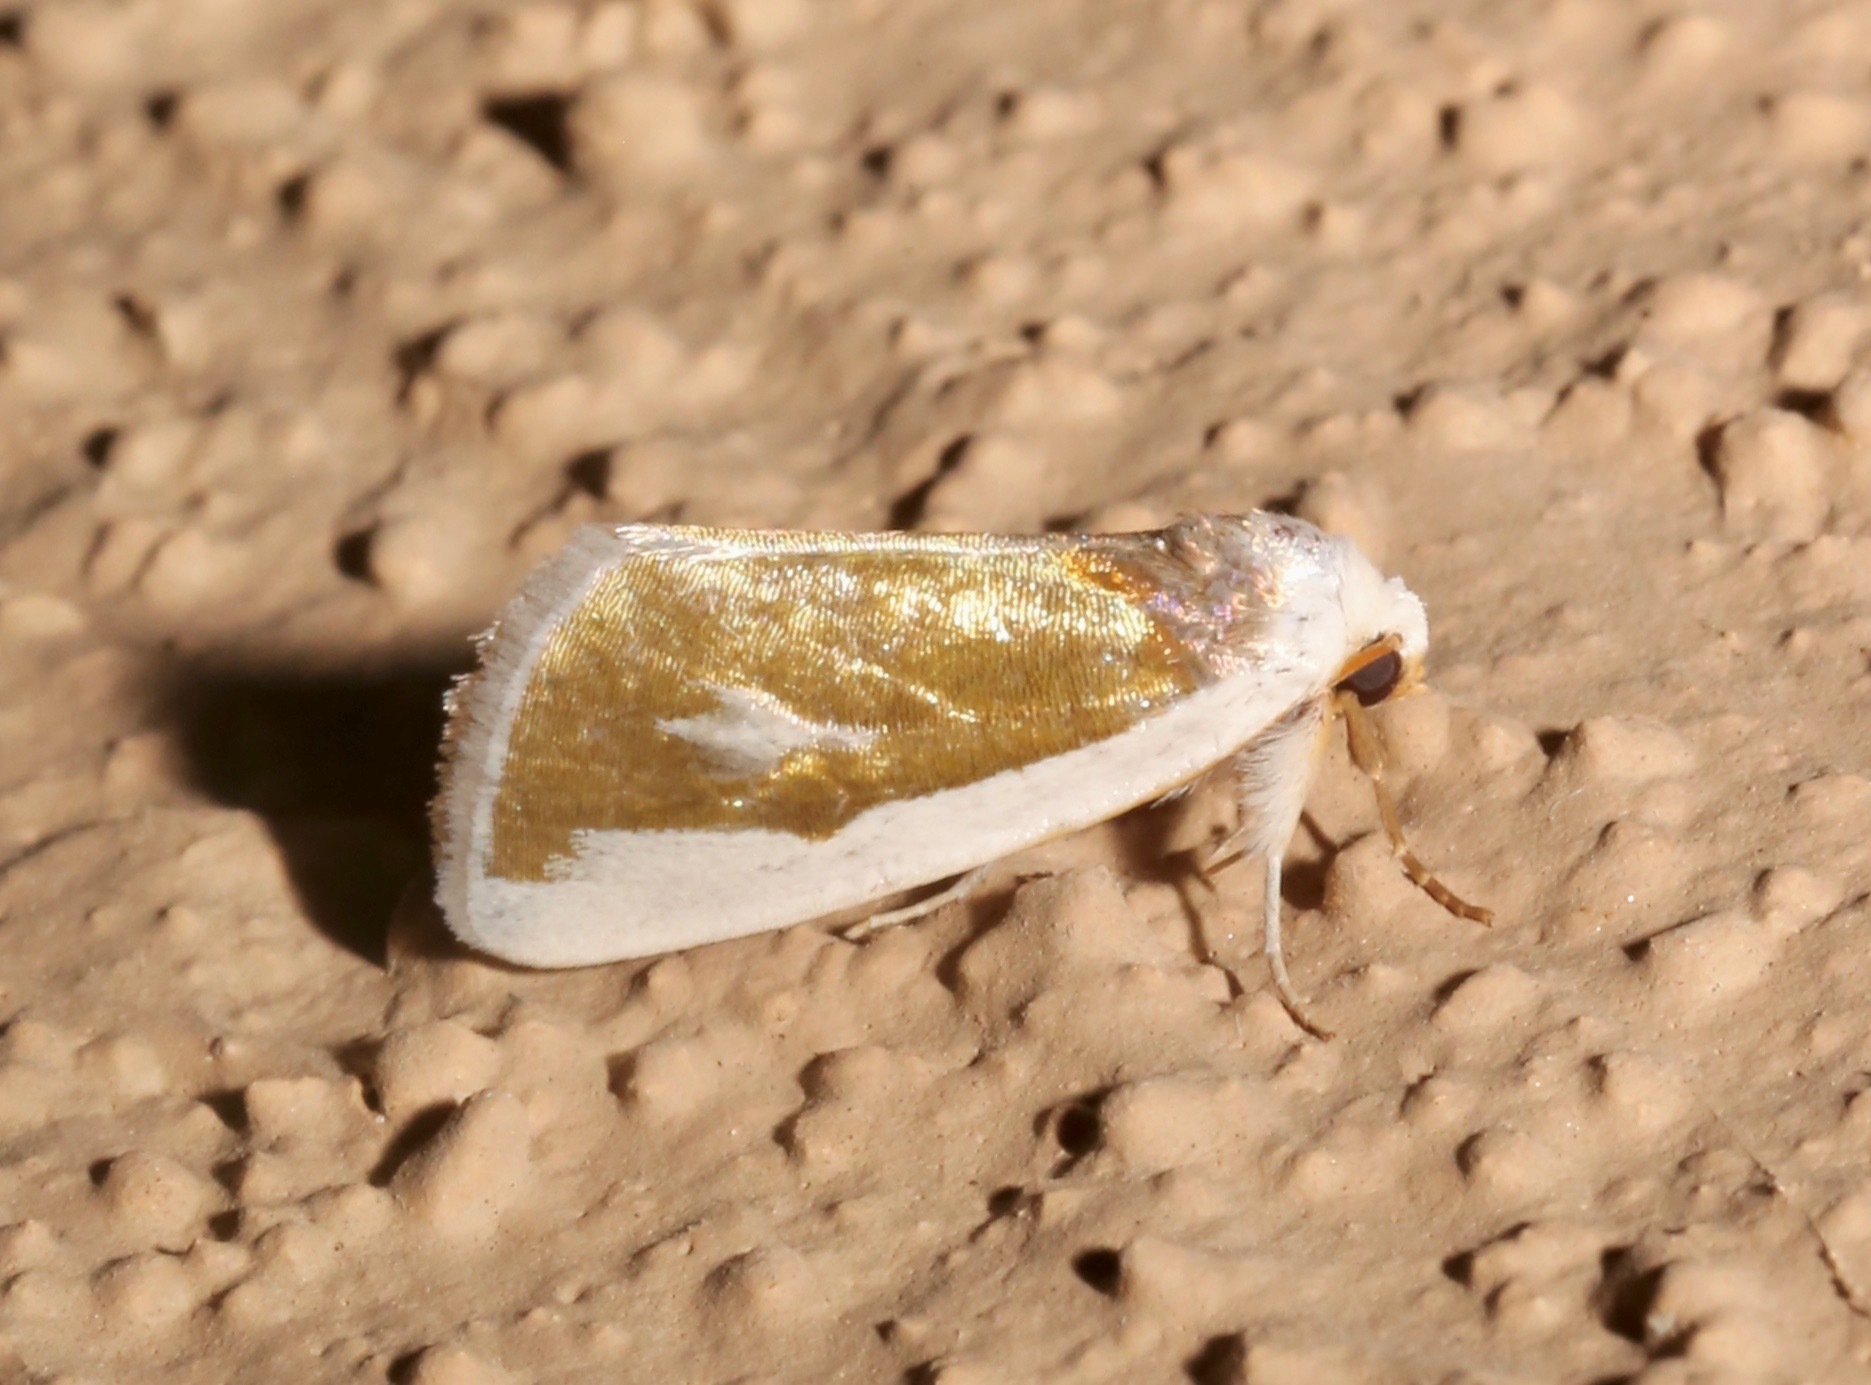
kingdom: Animalia
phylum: Arthropoda
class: Insecta
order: Lepidoptera
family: Noctuidae
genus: Neumoegenia
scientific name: Neumoegenia poetica
